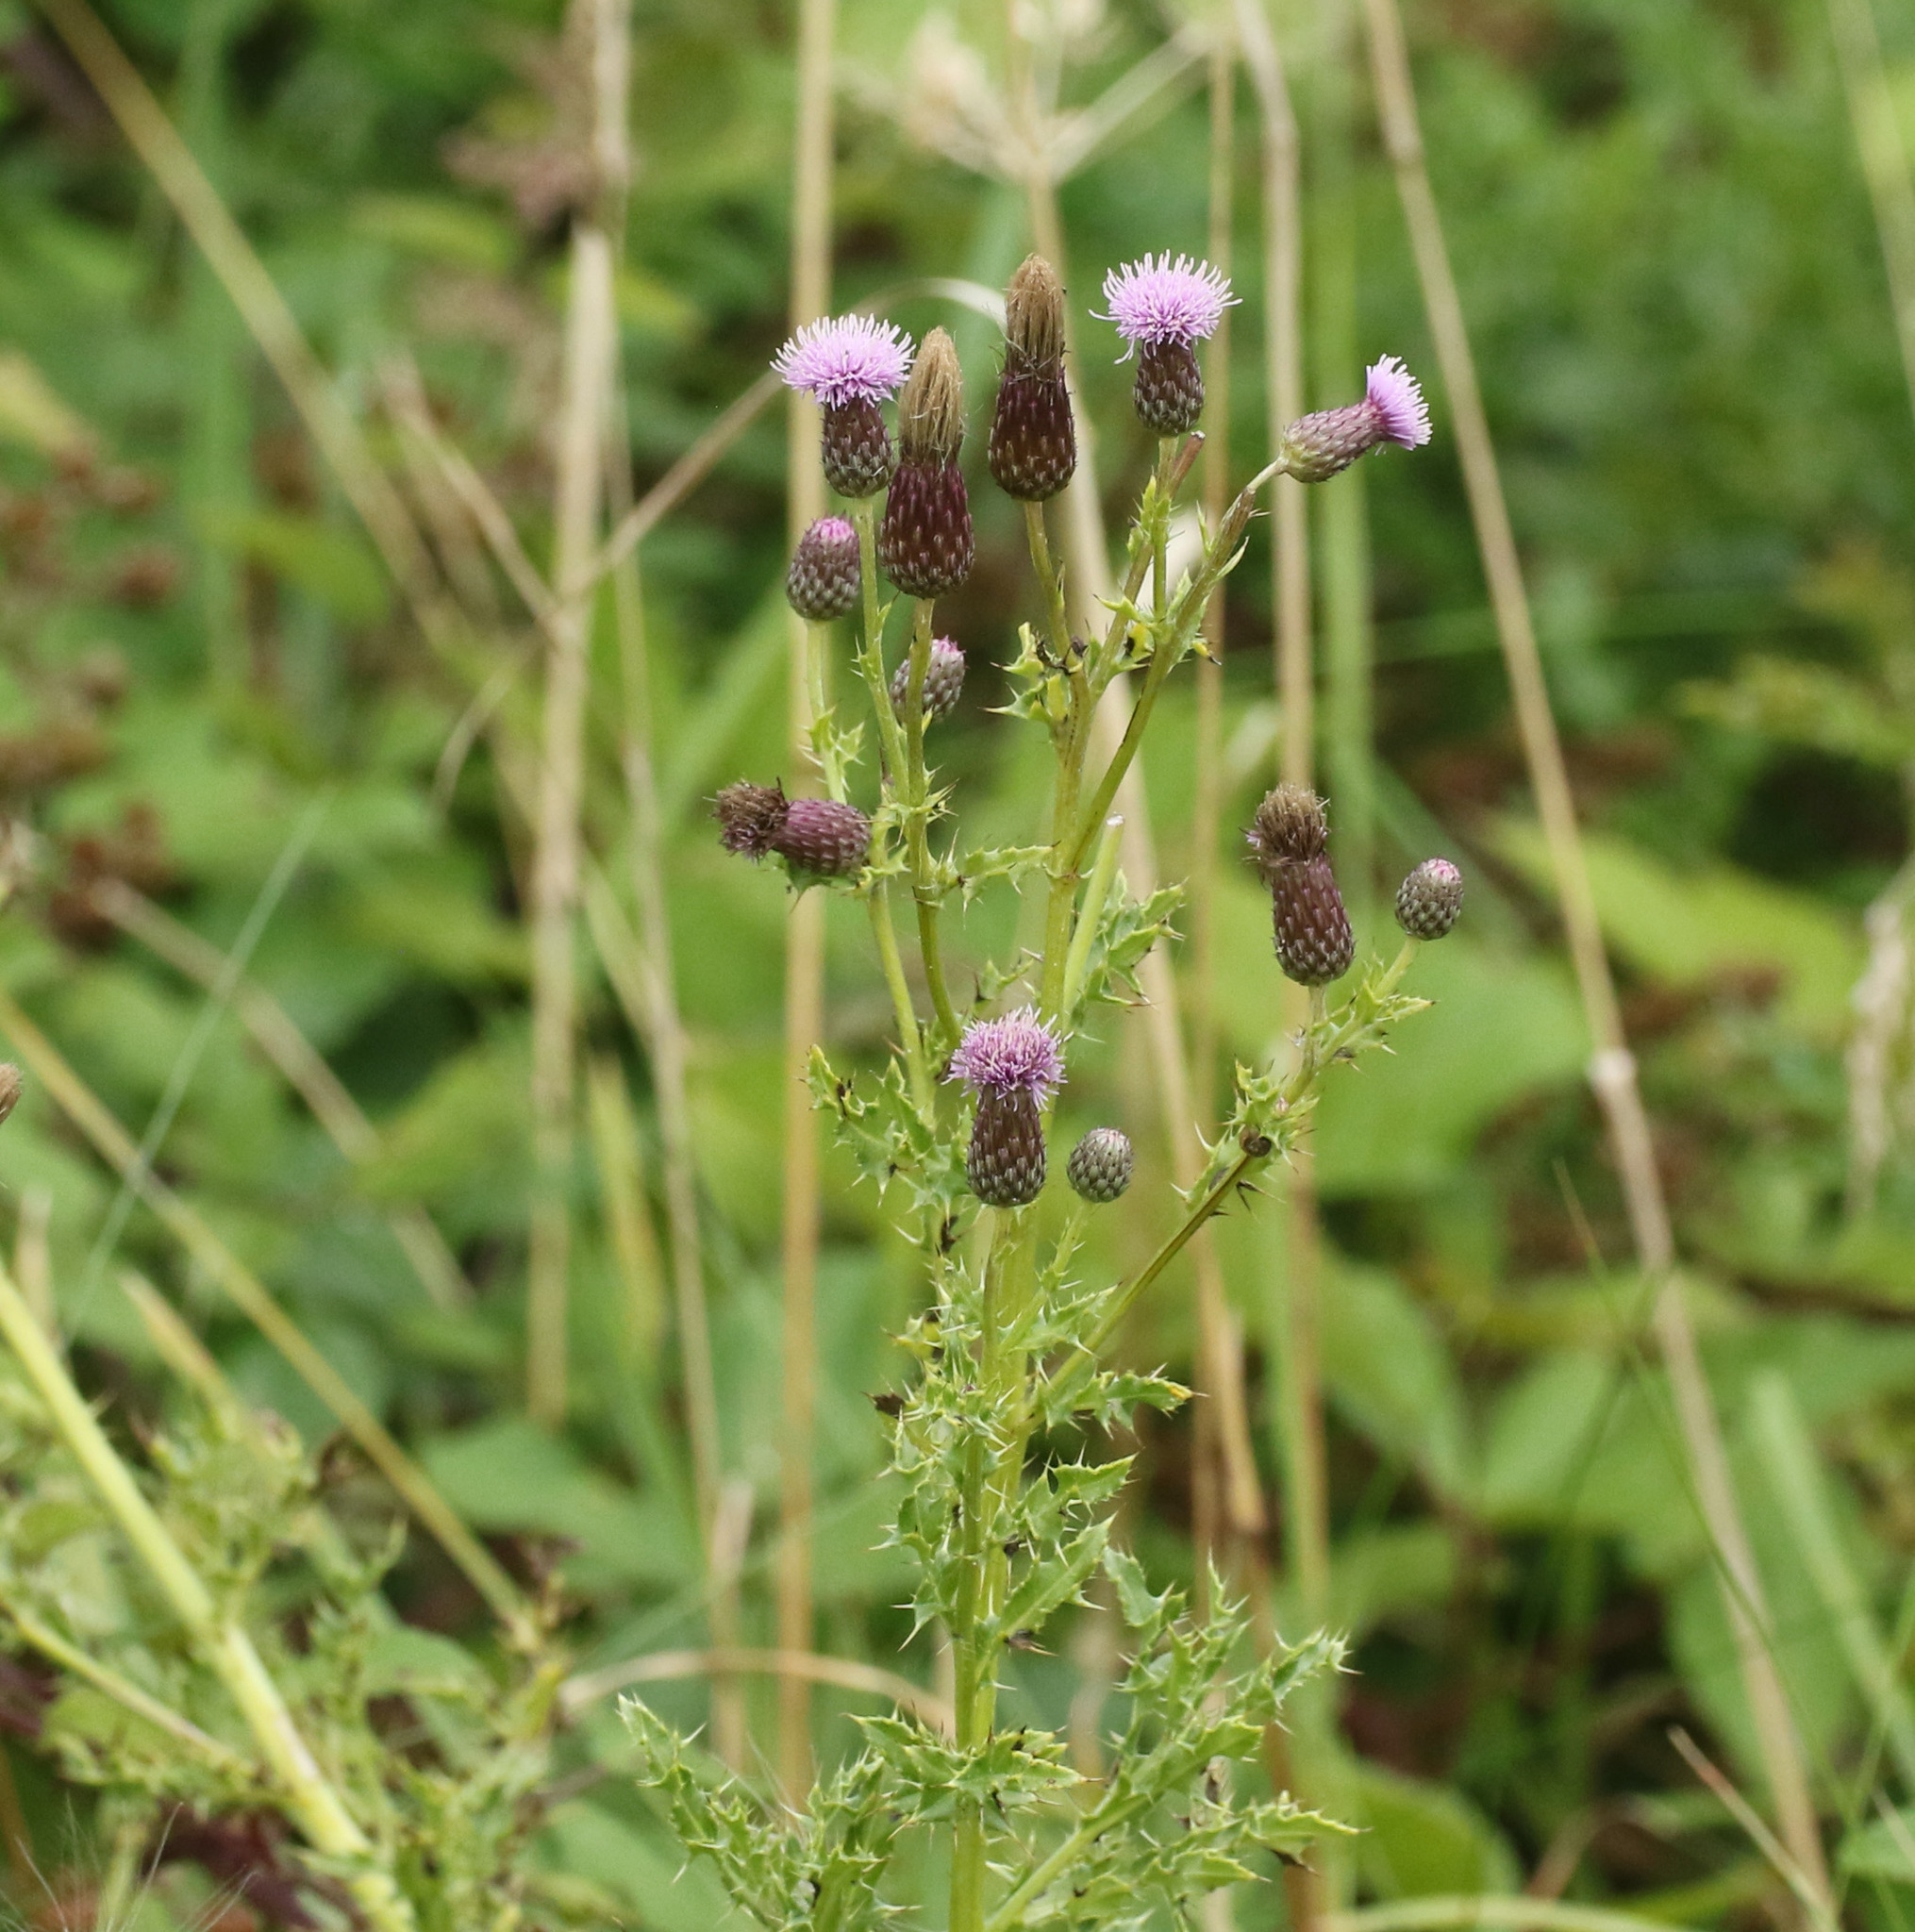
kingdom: Plantae
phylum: Tracheophyta
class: Magnoliopsida
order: Asterales
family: Asteraceae
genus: Cirsium
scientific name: Cirsium arvense
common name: Creeping thistle
